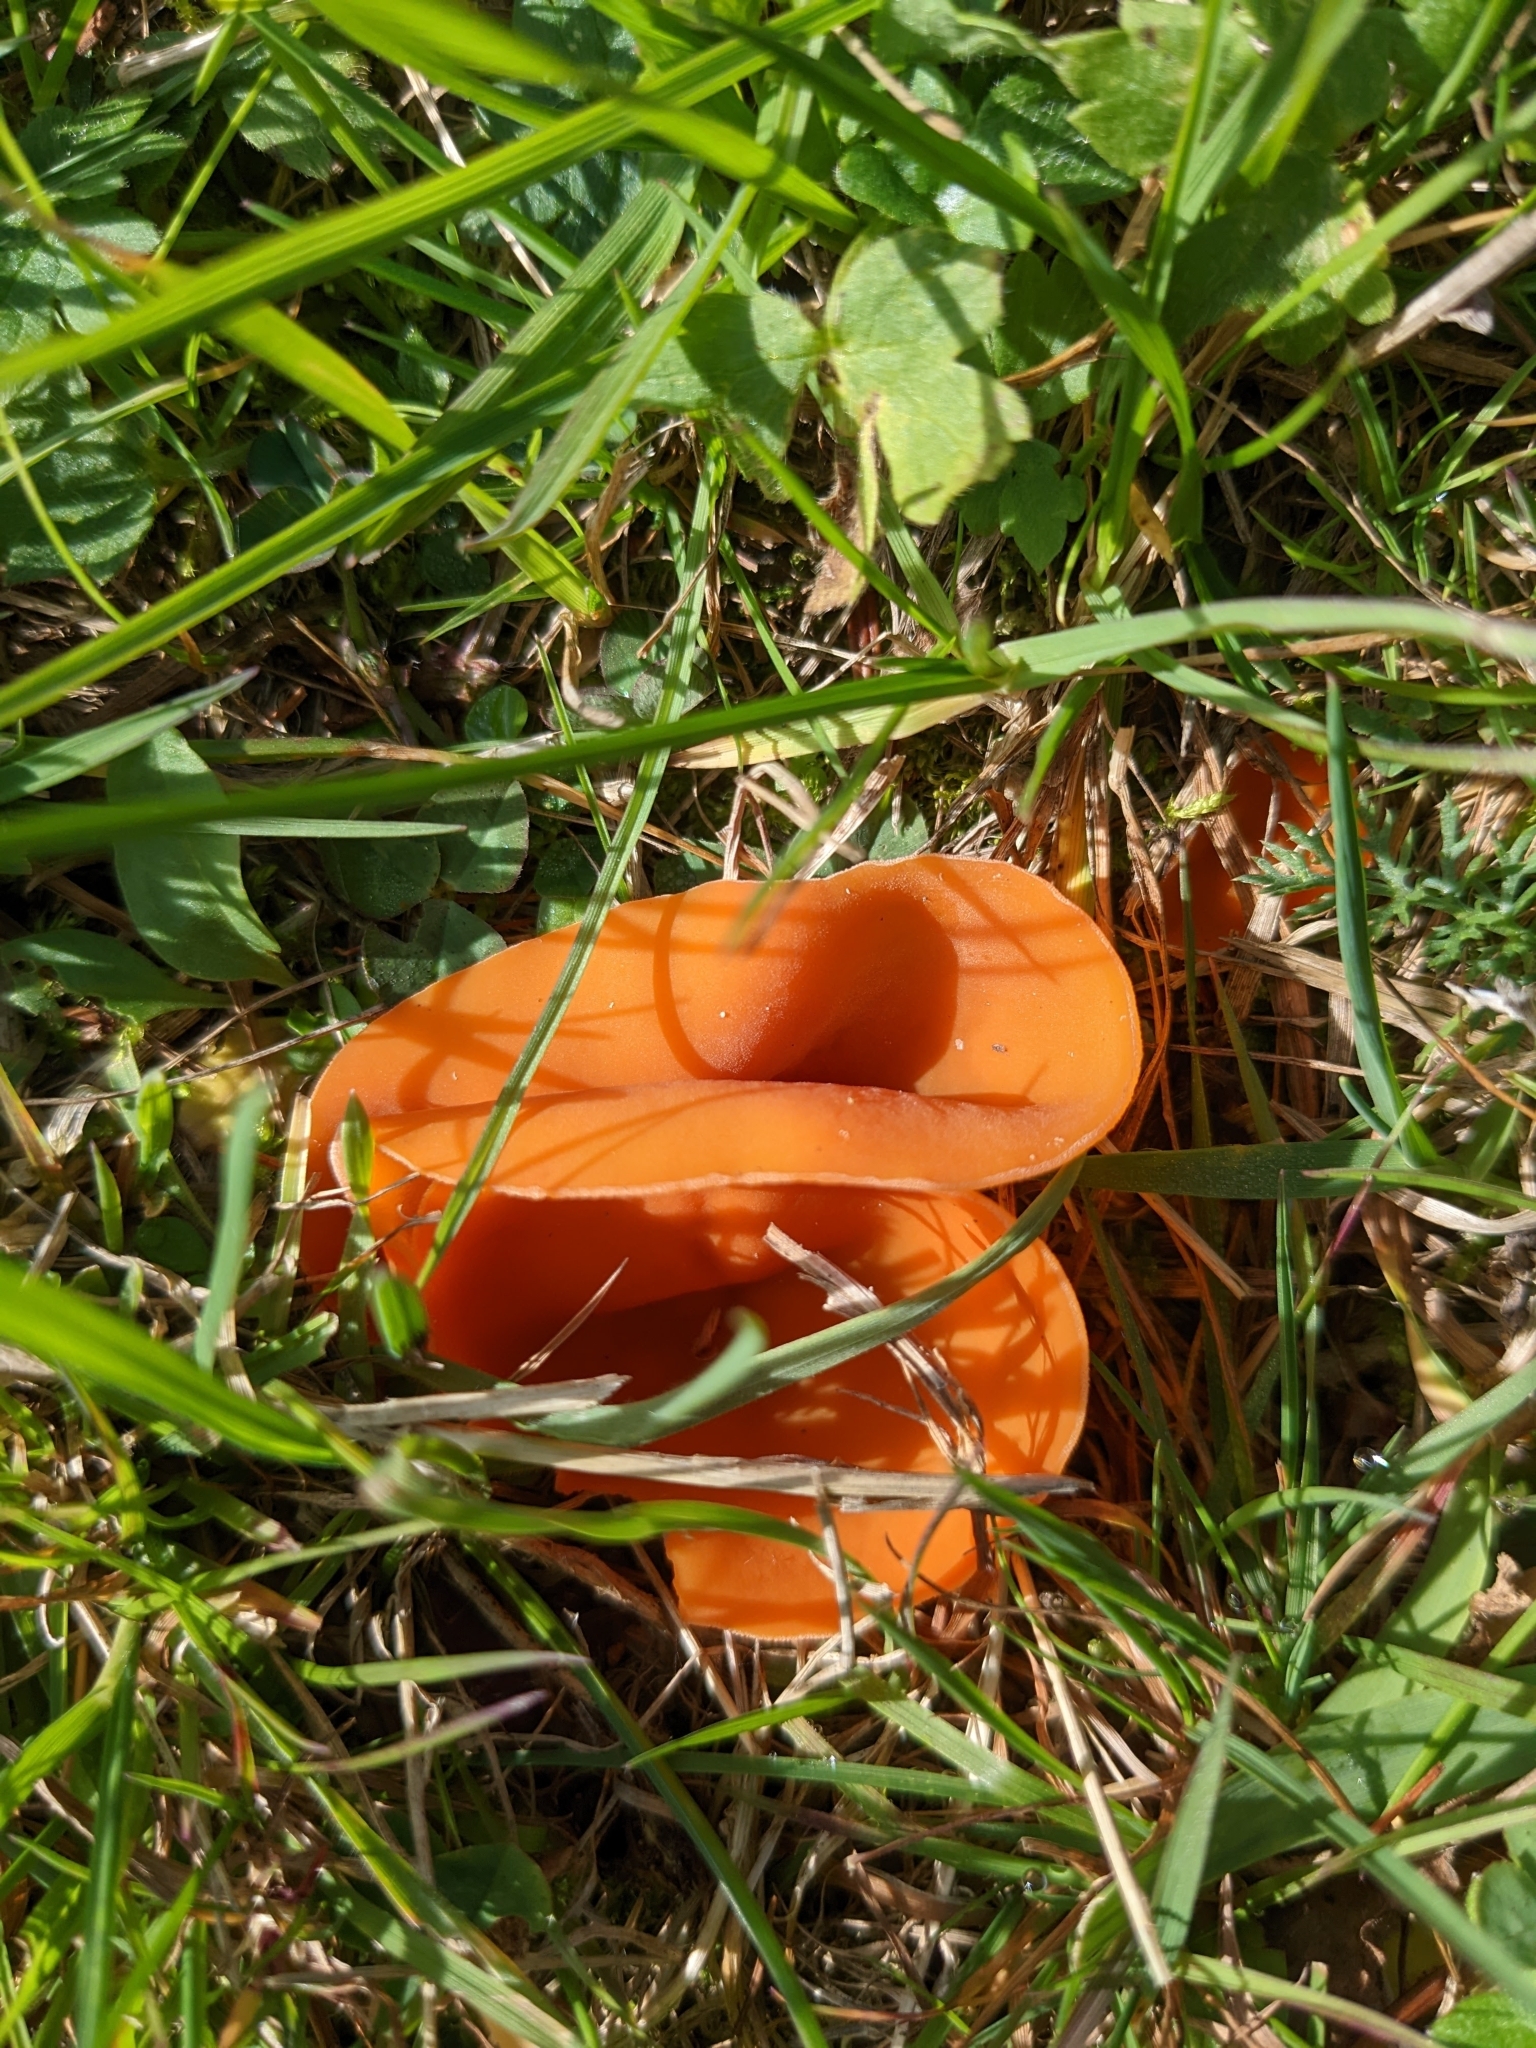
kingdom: Fungi
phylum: Ascomycota
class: Pezizomycetes
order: Pezizales
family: Pyronemataceae
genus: Aleuria
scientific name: Aleuria aurantia
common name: Orange peel fungus
